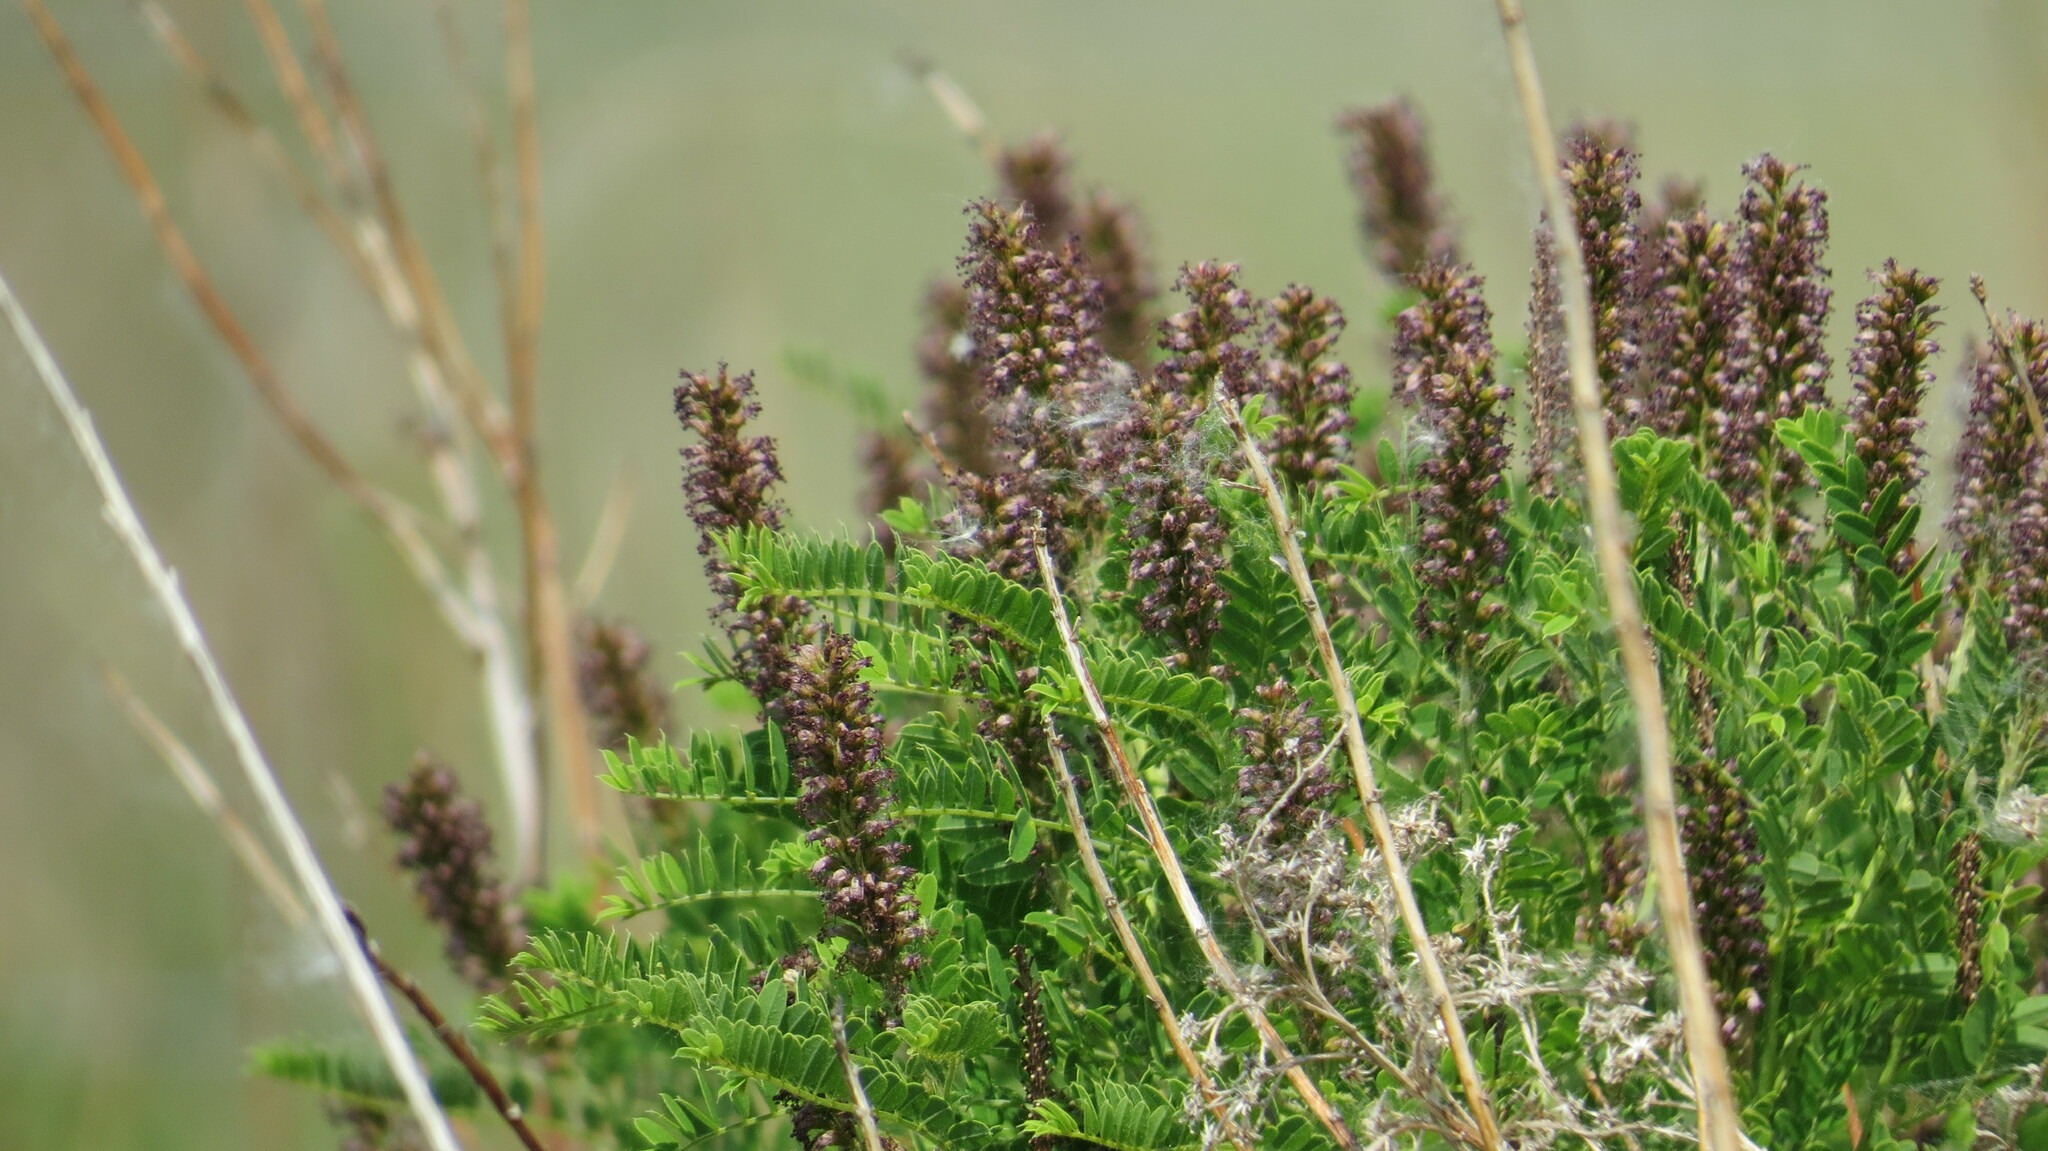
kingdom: Plantae
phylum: Tracheophyta
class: Magnoliopsida
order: Fabales
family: Fabaceae
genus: Amorpha
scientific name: Amorpha nana
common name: Fragrant false indigo
